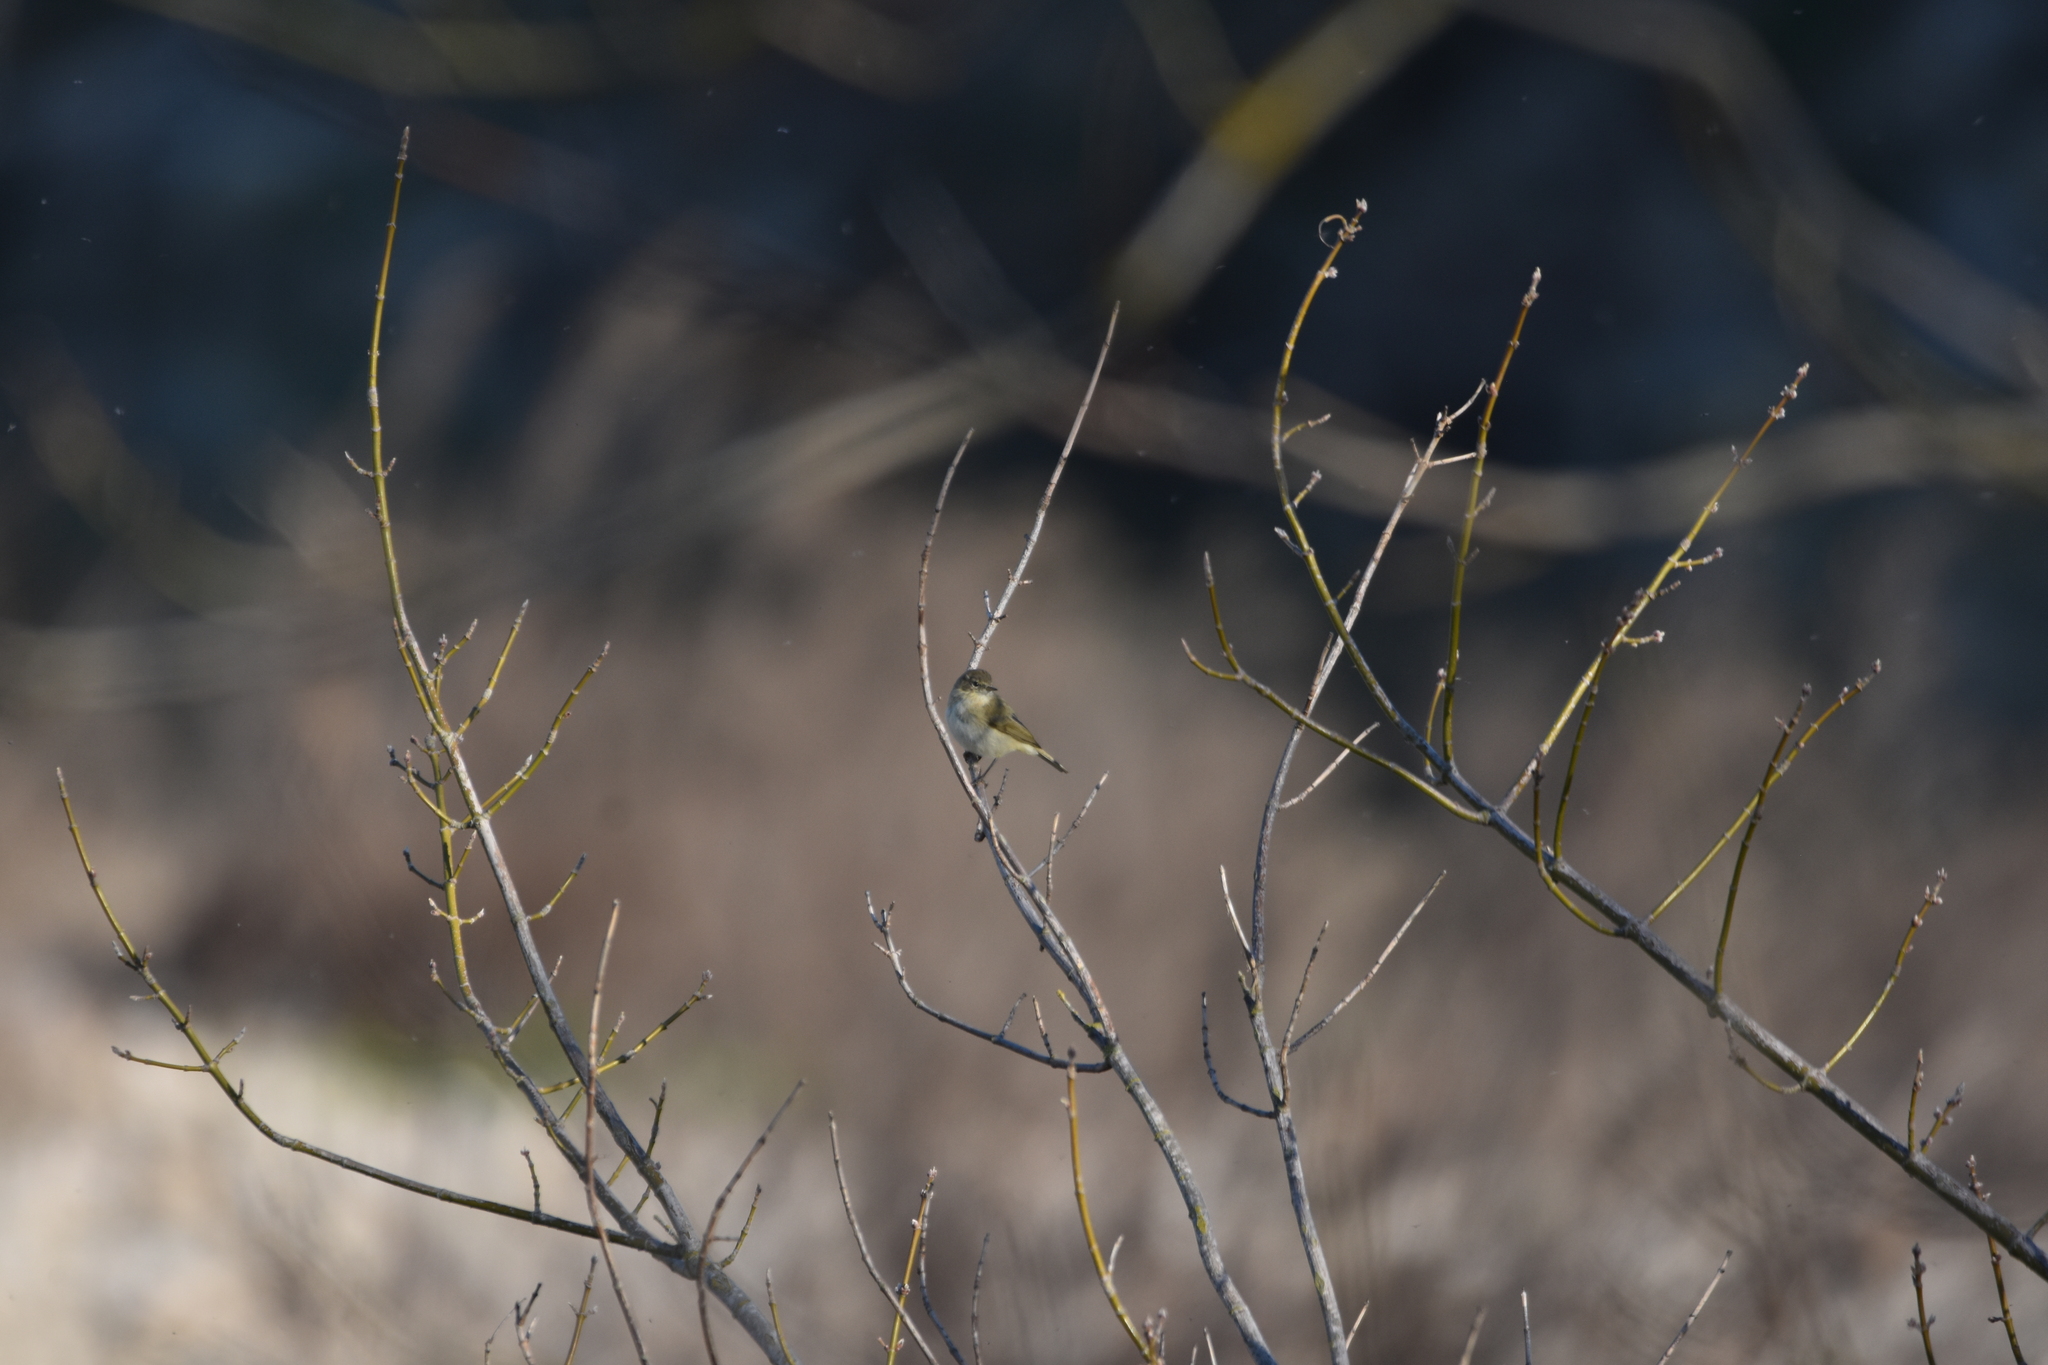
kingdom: Animalia
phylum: Chordata
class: Aves
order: Passeriformes
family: Phylloscopidae
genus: Phylloscopus
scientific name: Phylloscopus collybita
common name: Common chiffchaff
